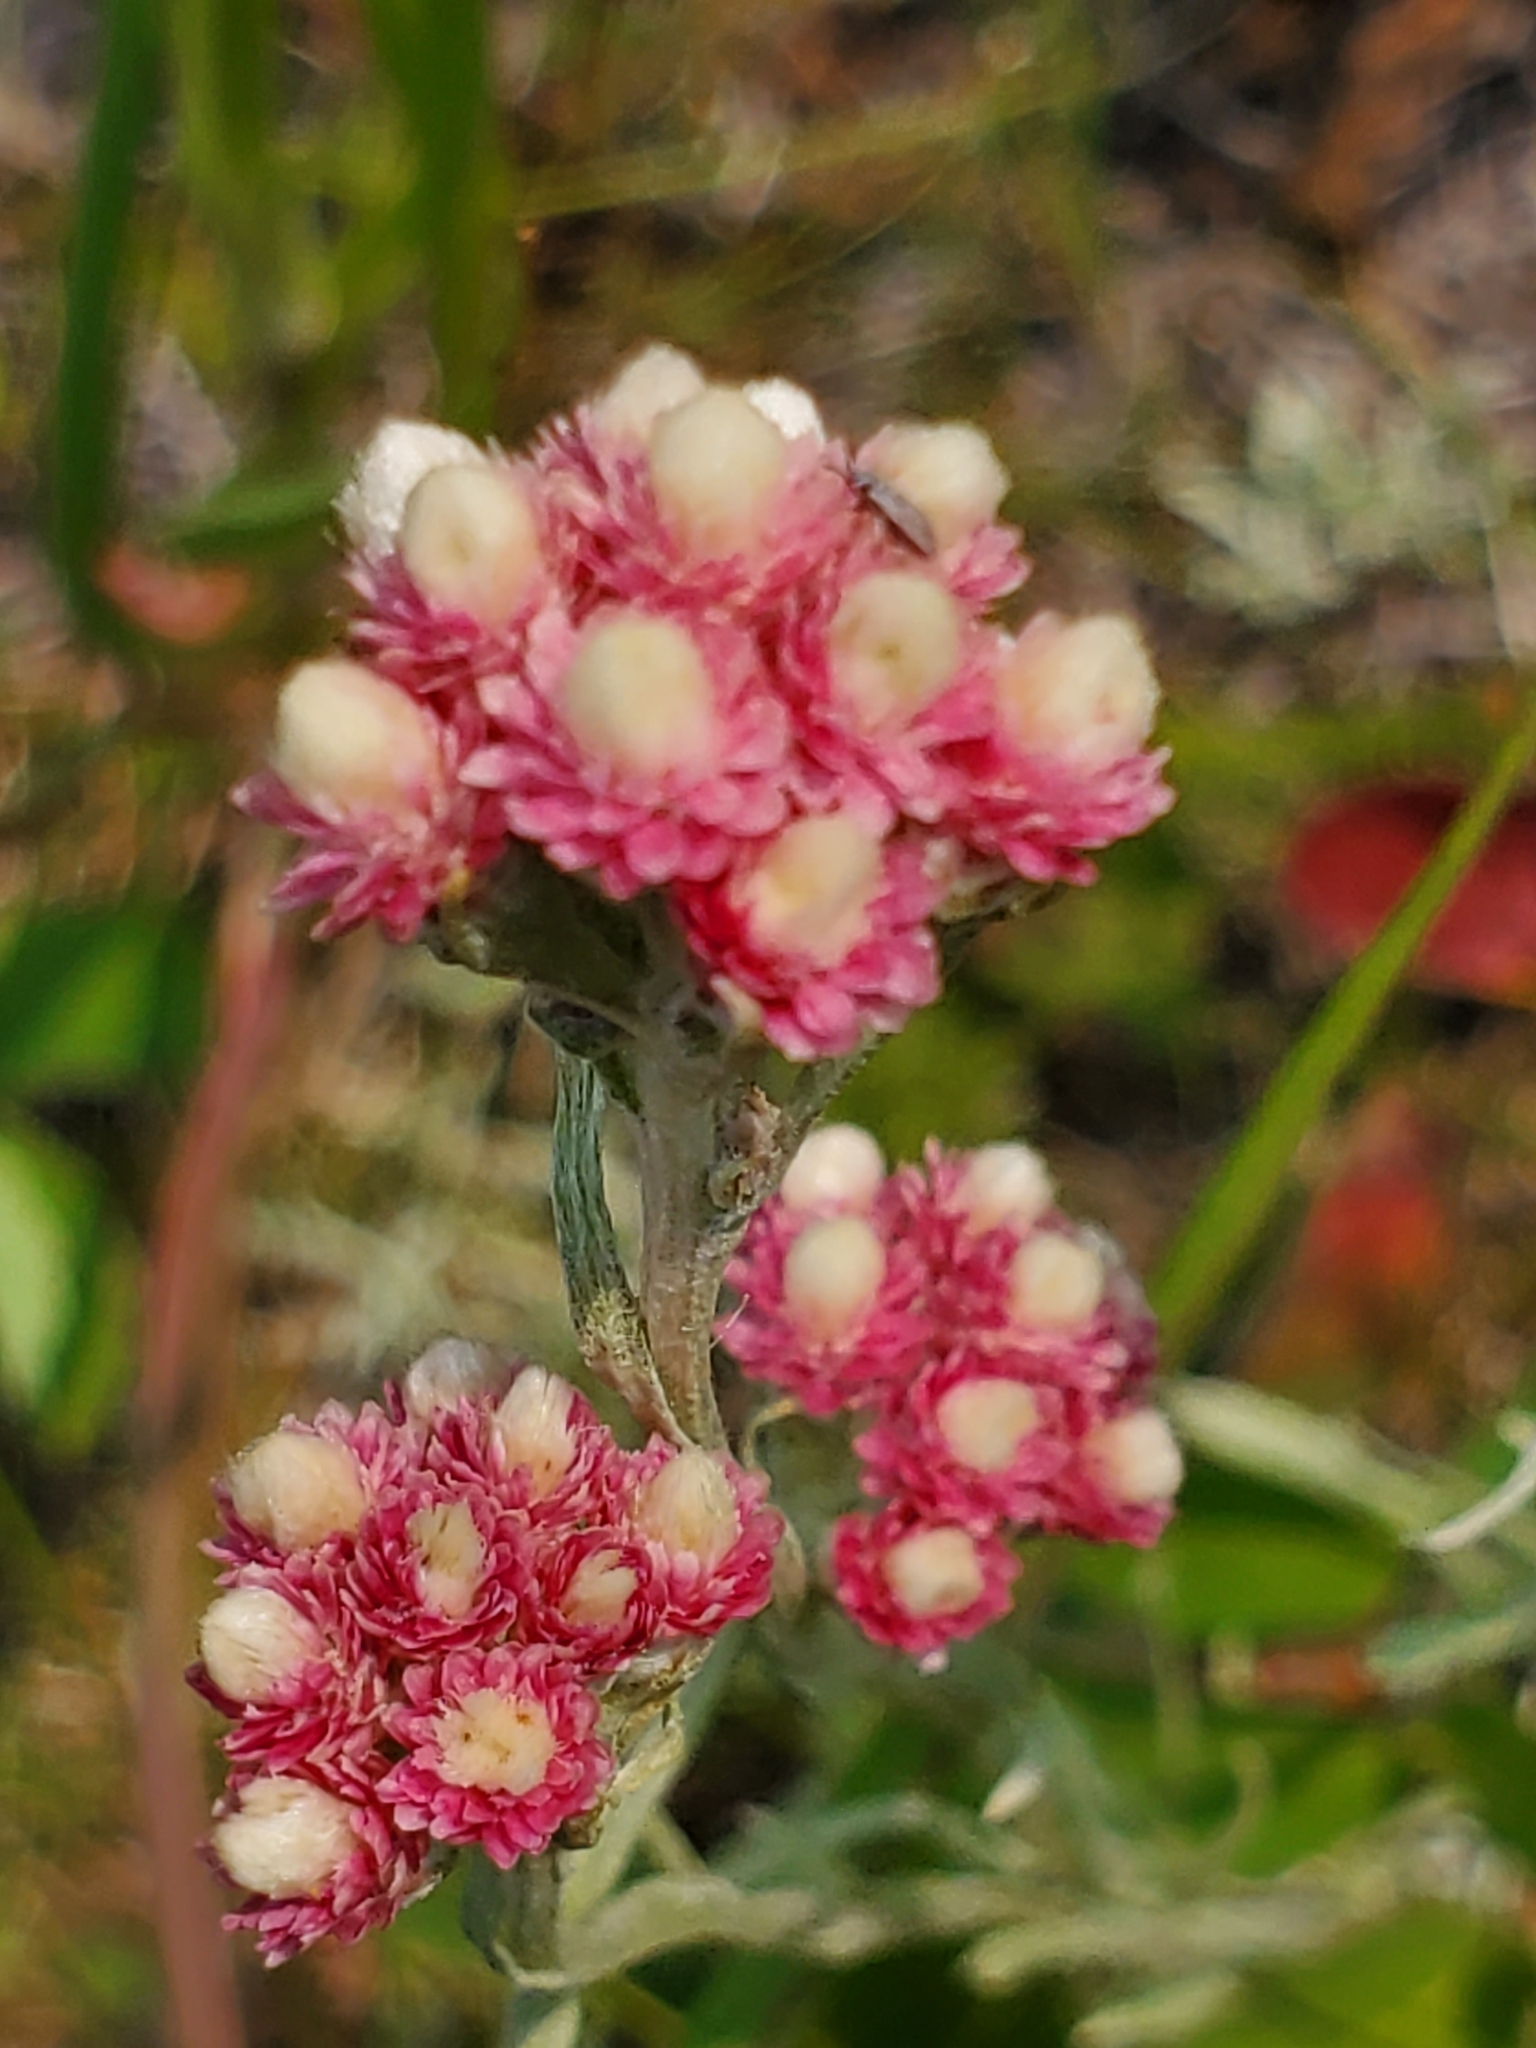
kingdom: Plantae
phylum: Tracheophyta
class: Magnoliopsida
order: Asterales
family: Asteraceae
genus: Antennaria
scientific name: Antennaria rosea
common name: Rosy pussytoes
